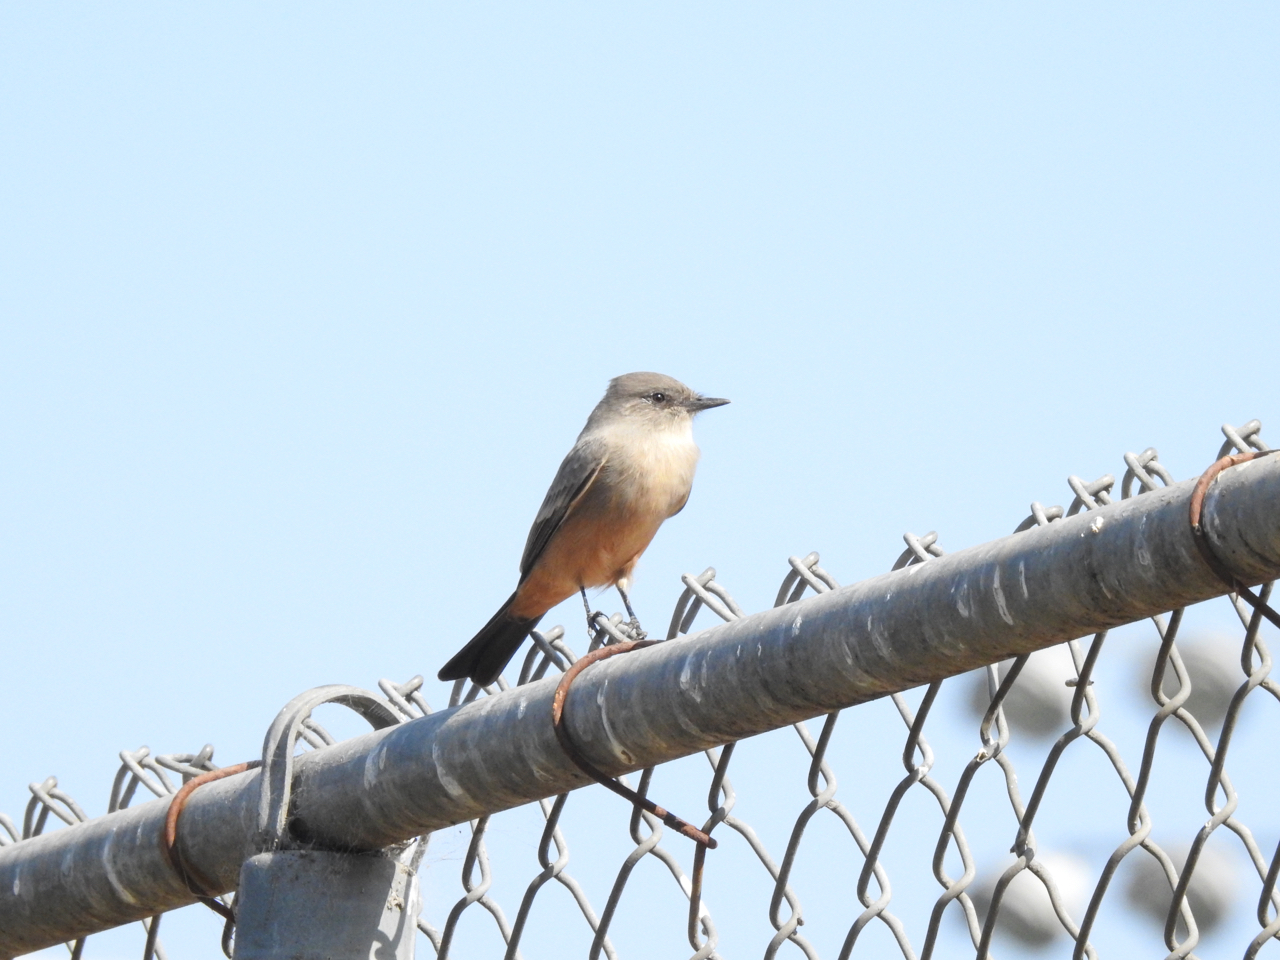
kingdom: Animalia
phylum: Chordata
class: Aves
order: Passeriformes
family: Tyrannidae
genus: Sayornis
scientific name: Sayornis saya
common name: Say's phoebe
